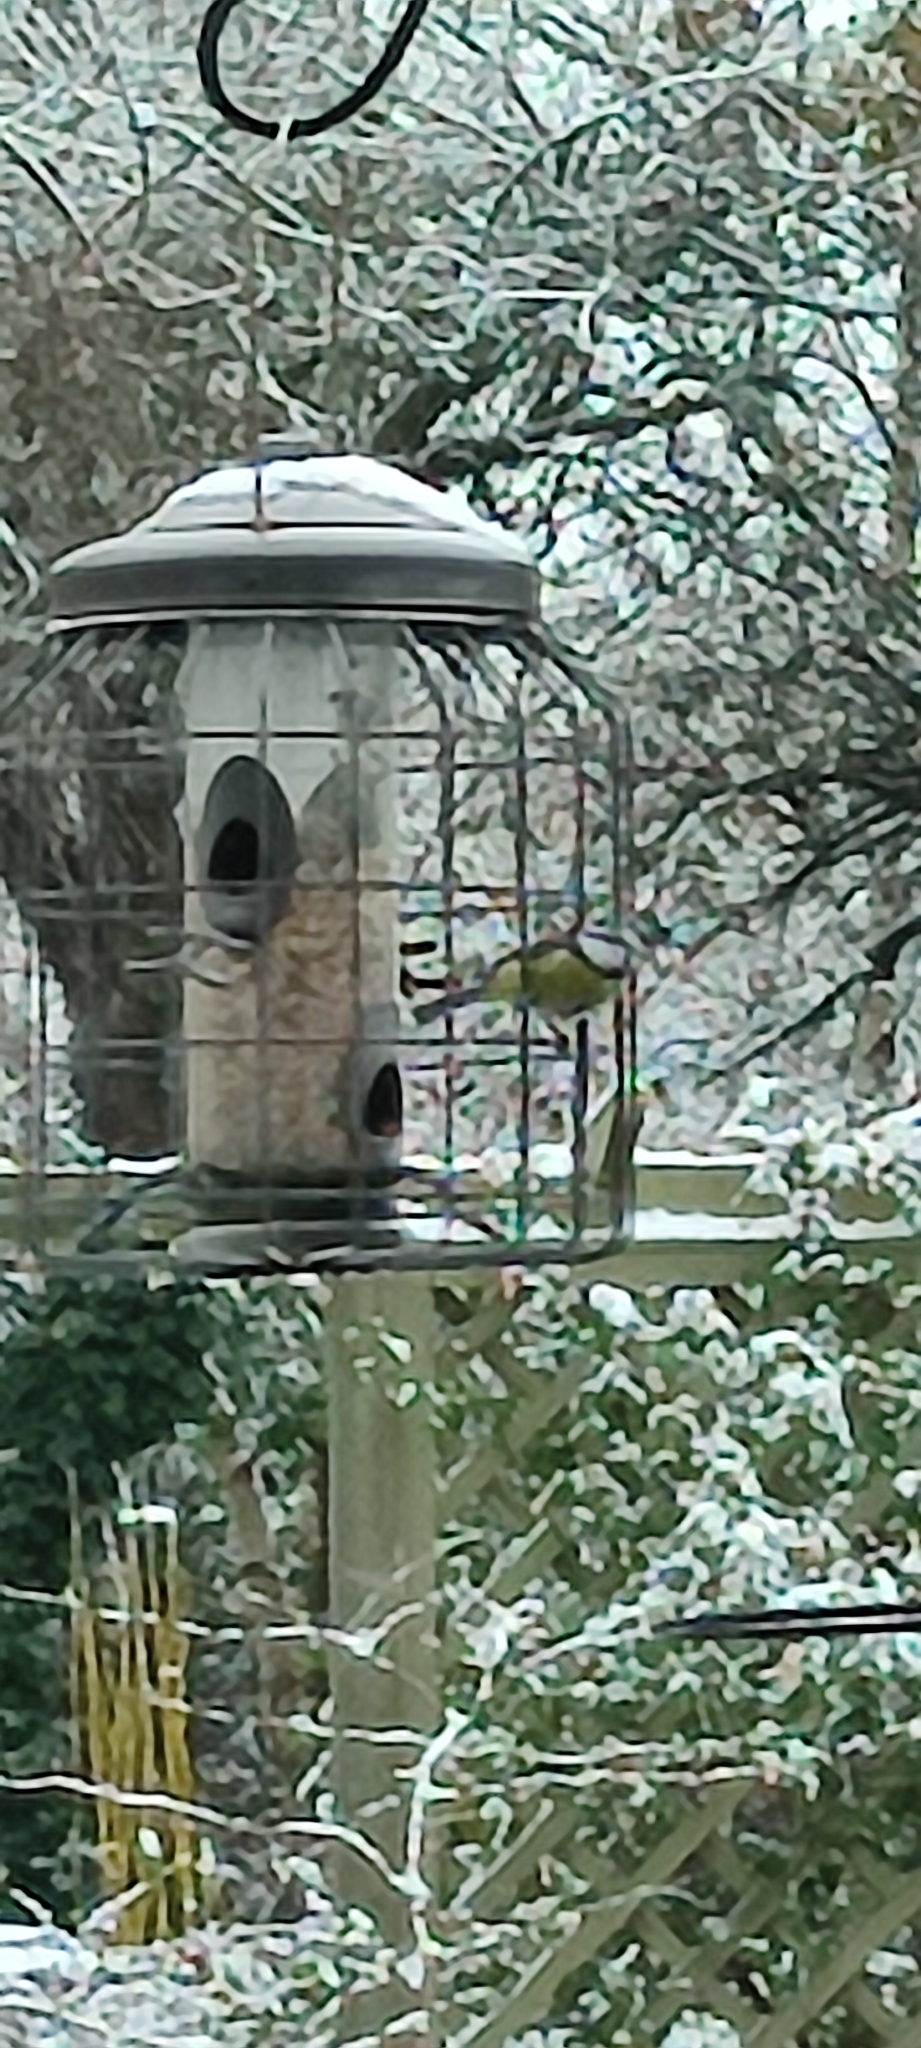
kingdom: Animalia
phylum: Chordata
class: Aves
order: Passeriformes
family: Paridae
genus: Cyanistes
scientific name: Cyanistes caeruleus
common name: Eurasian blue tit
